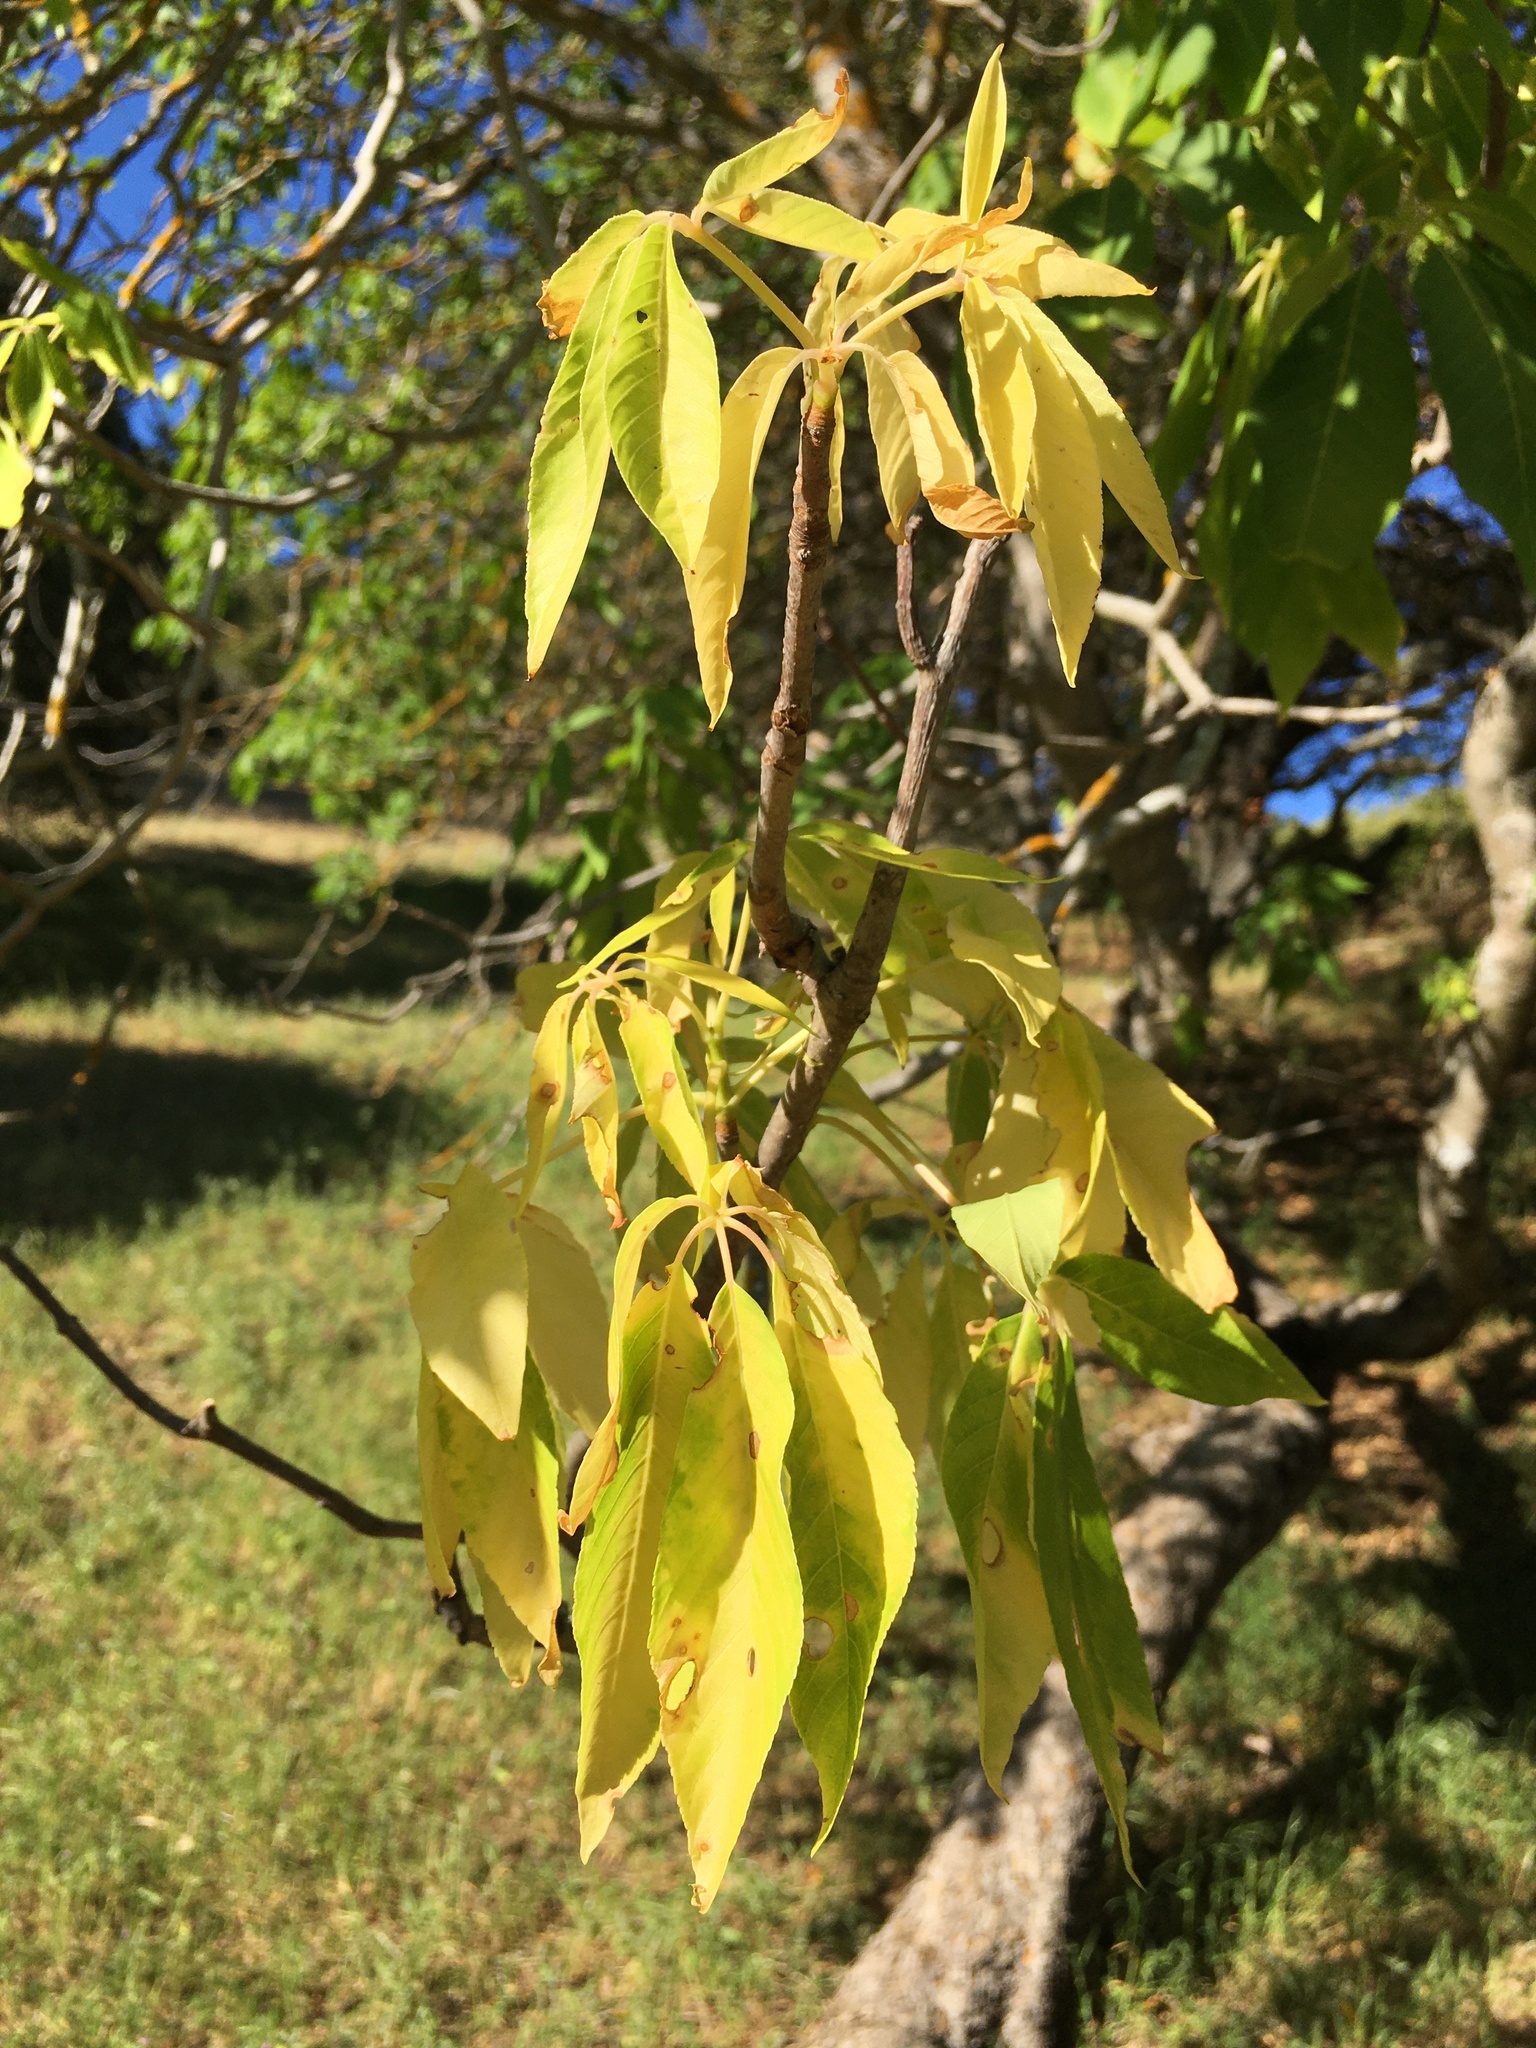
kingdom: Plantae
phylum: Tracheophyta
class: Magnoliopsida
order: Sapindales
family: Sapindaceae
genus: Aesculus
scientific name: Aesculus californica
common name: California buckeye
